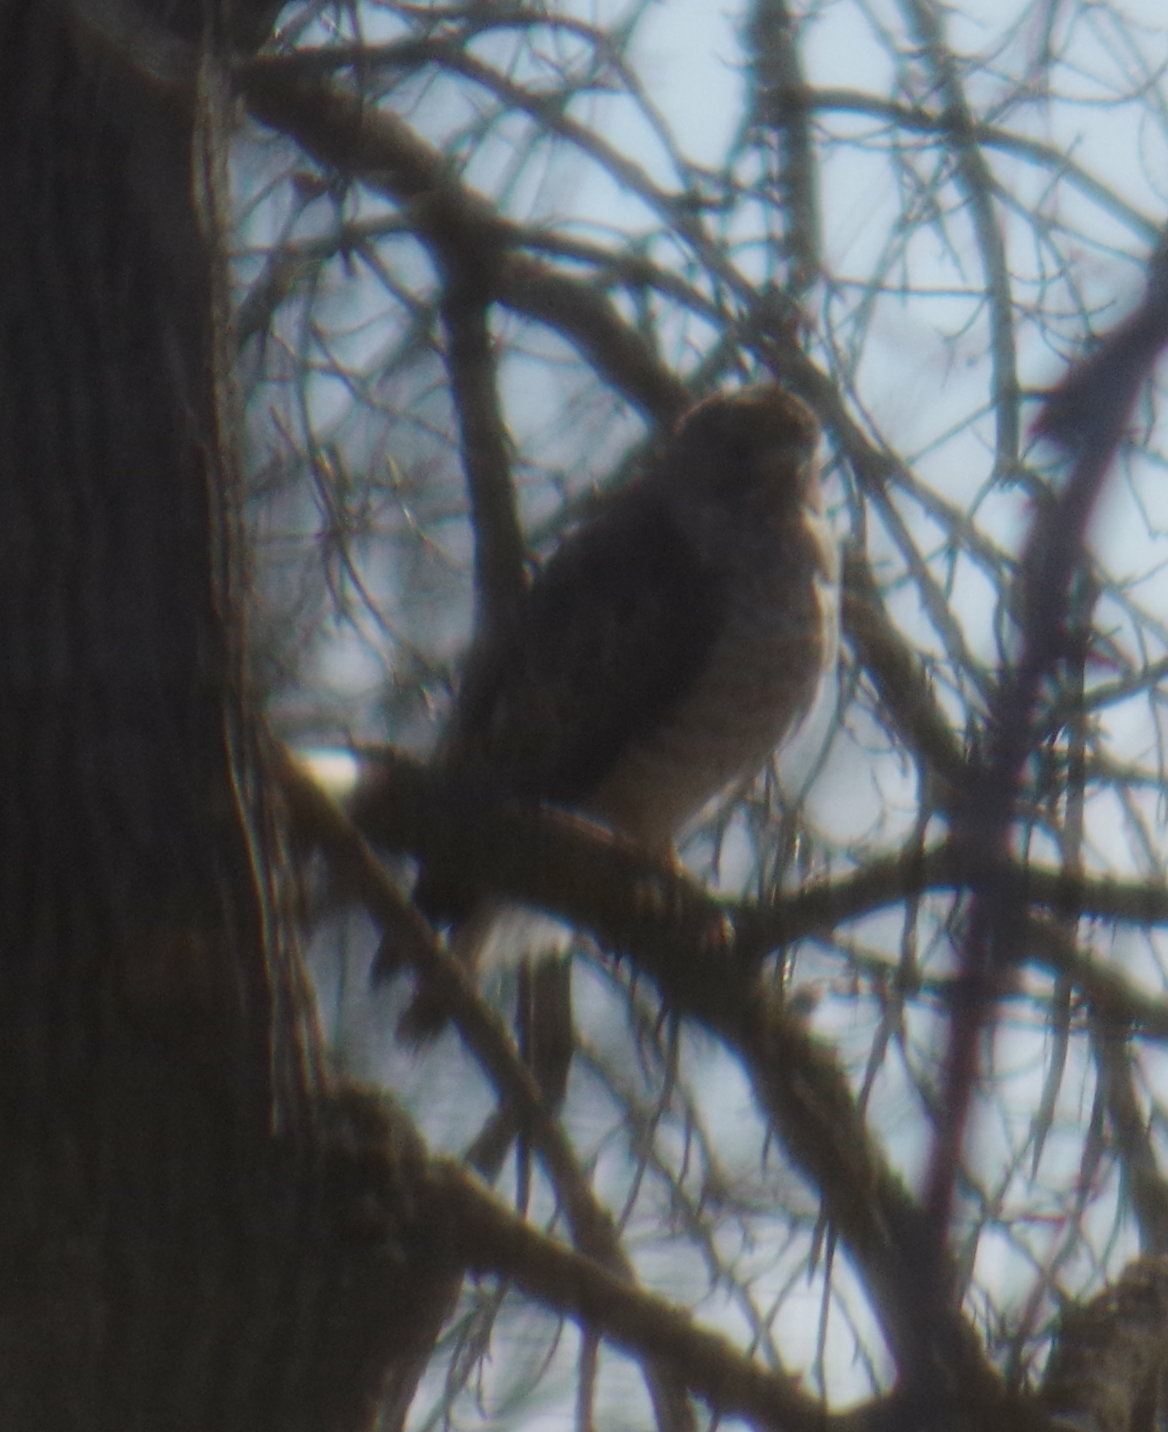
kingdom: Animalia
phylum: Chordata
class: Aves
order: Accipitriformes
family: Accipitridae
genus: Buteo
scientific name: Buteo platypterus
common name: Broad-winged hawk
